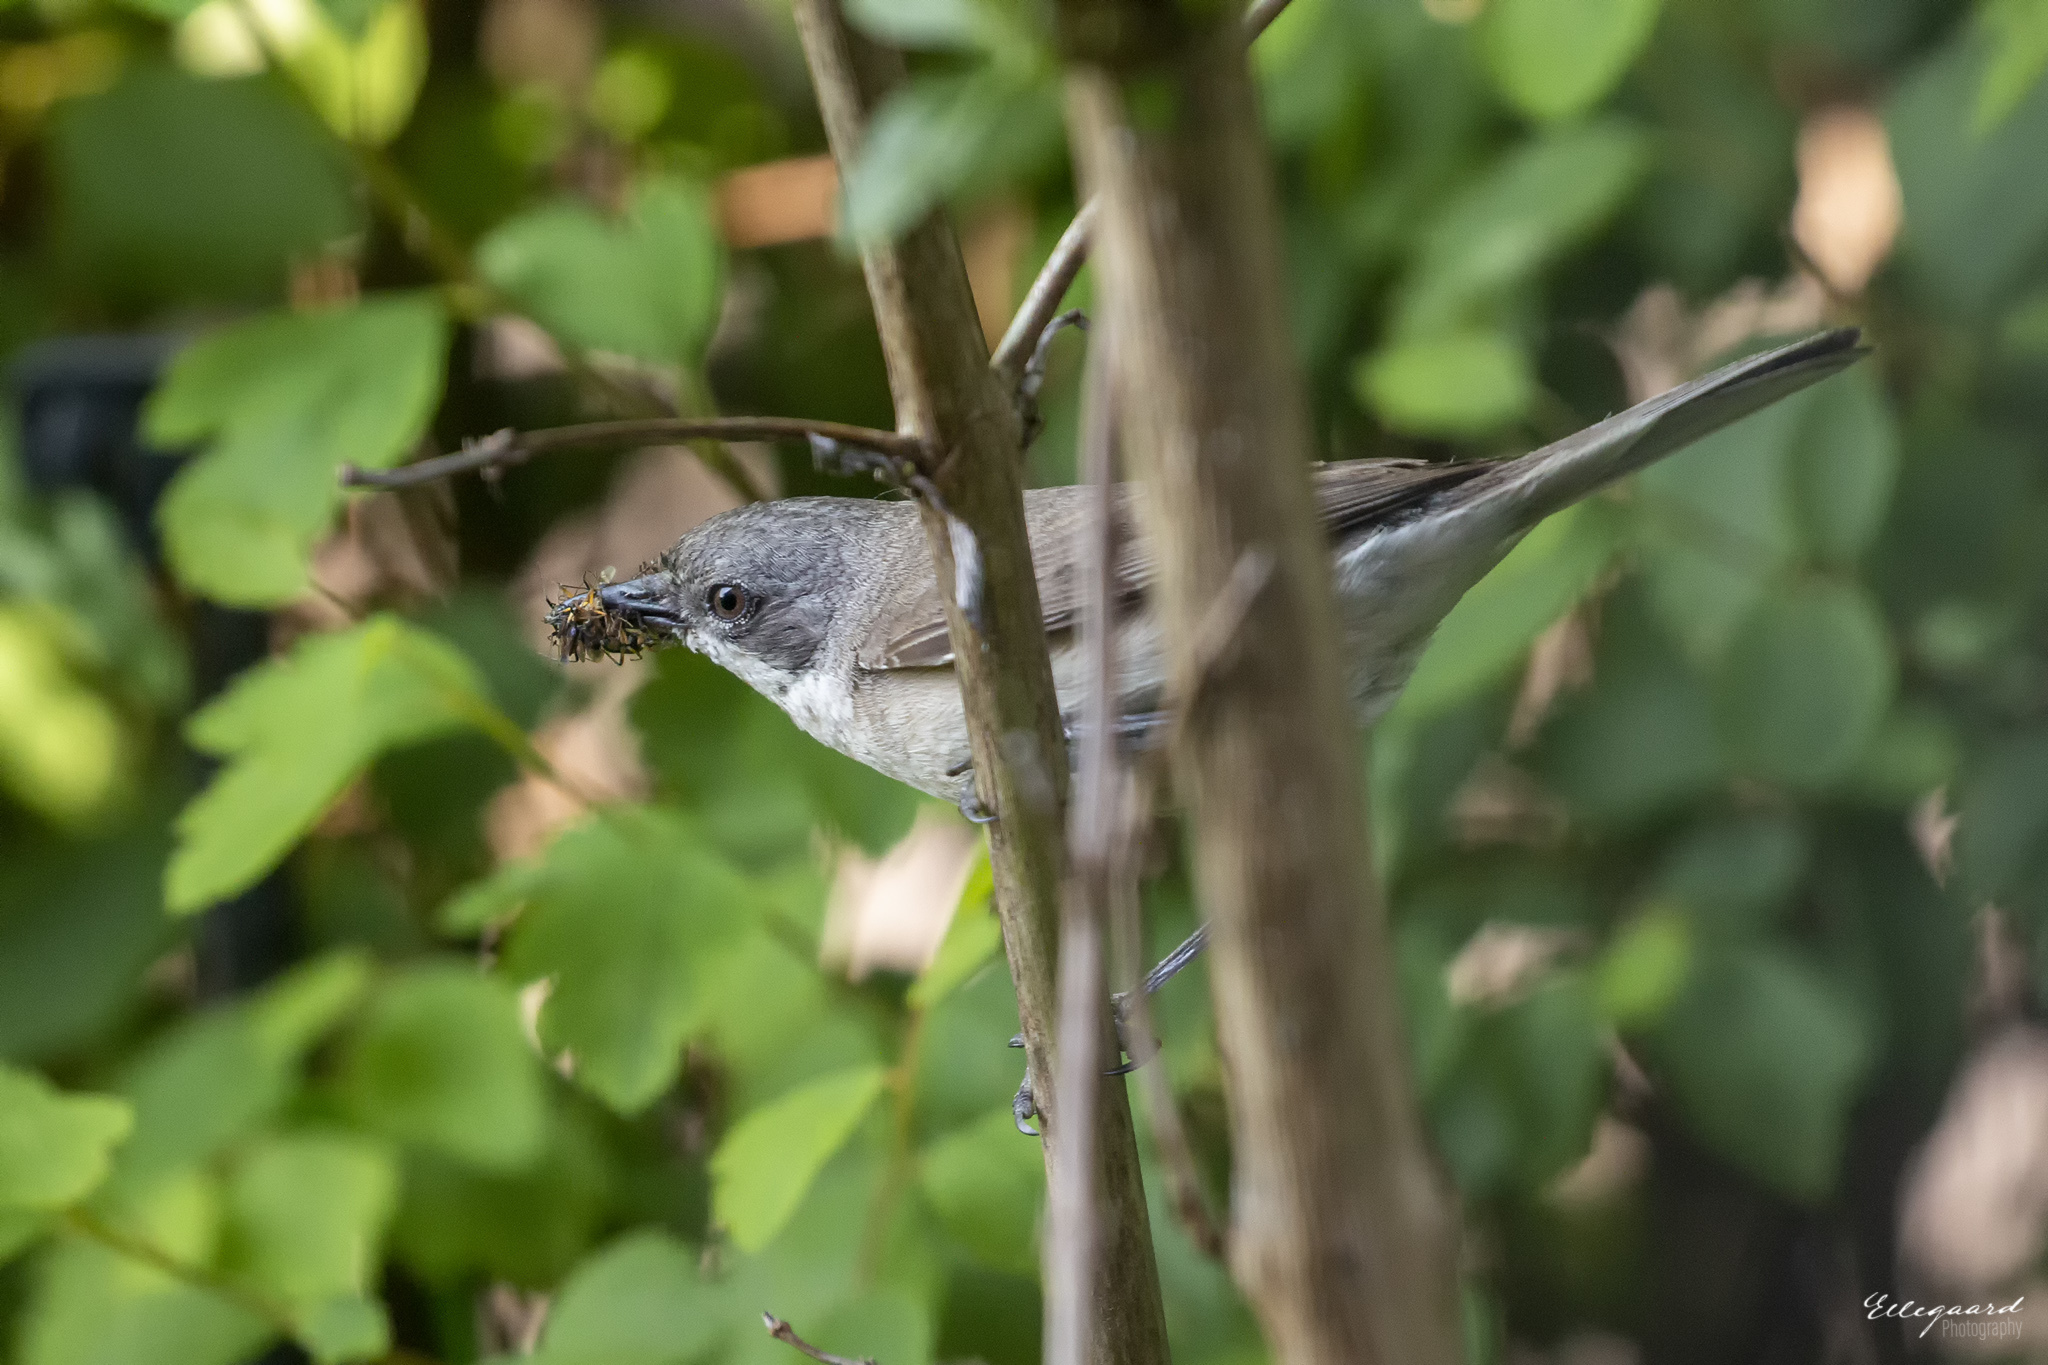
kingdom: Animalia
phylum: Chordata
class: Aves
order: Passeriformes
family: Sylviidae
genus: Sylvia
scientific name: Sylvia curruca
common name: Lesser whitethroat
